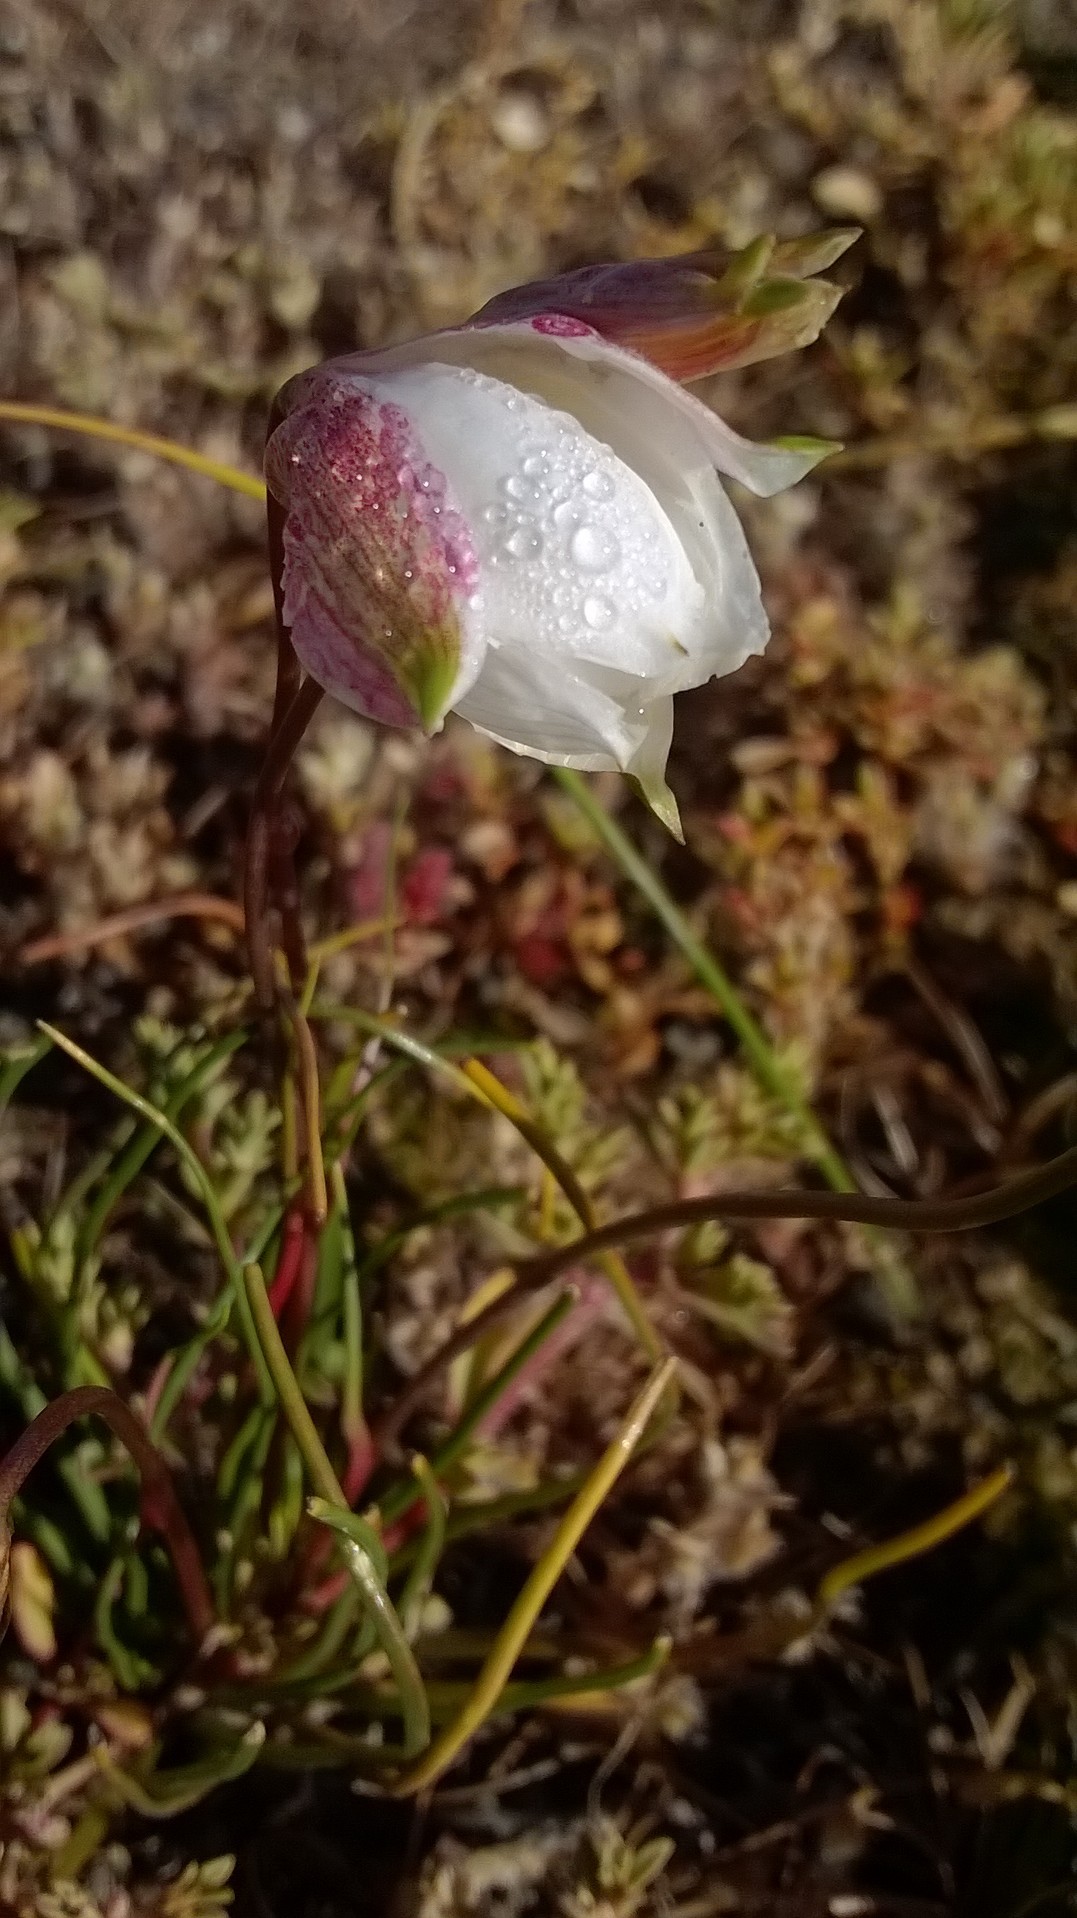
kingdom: Plantae
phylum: Tracheophyta
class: Liliopsida
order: Asparagales
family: Tecophilaeaceae
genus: Cyanella
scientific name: Cyanella alba
